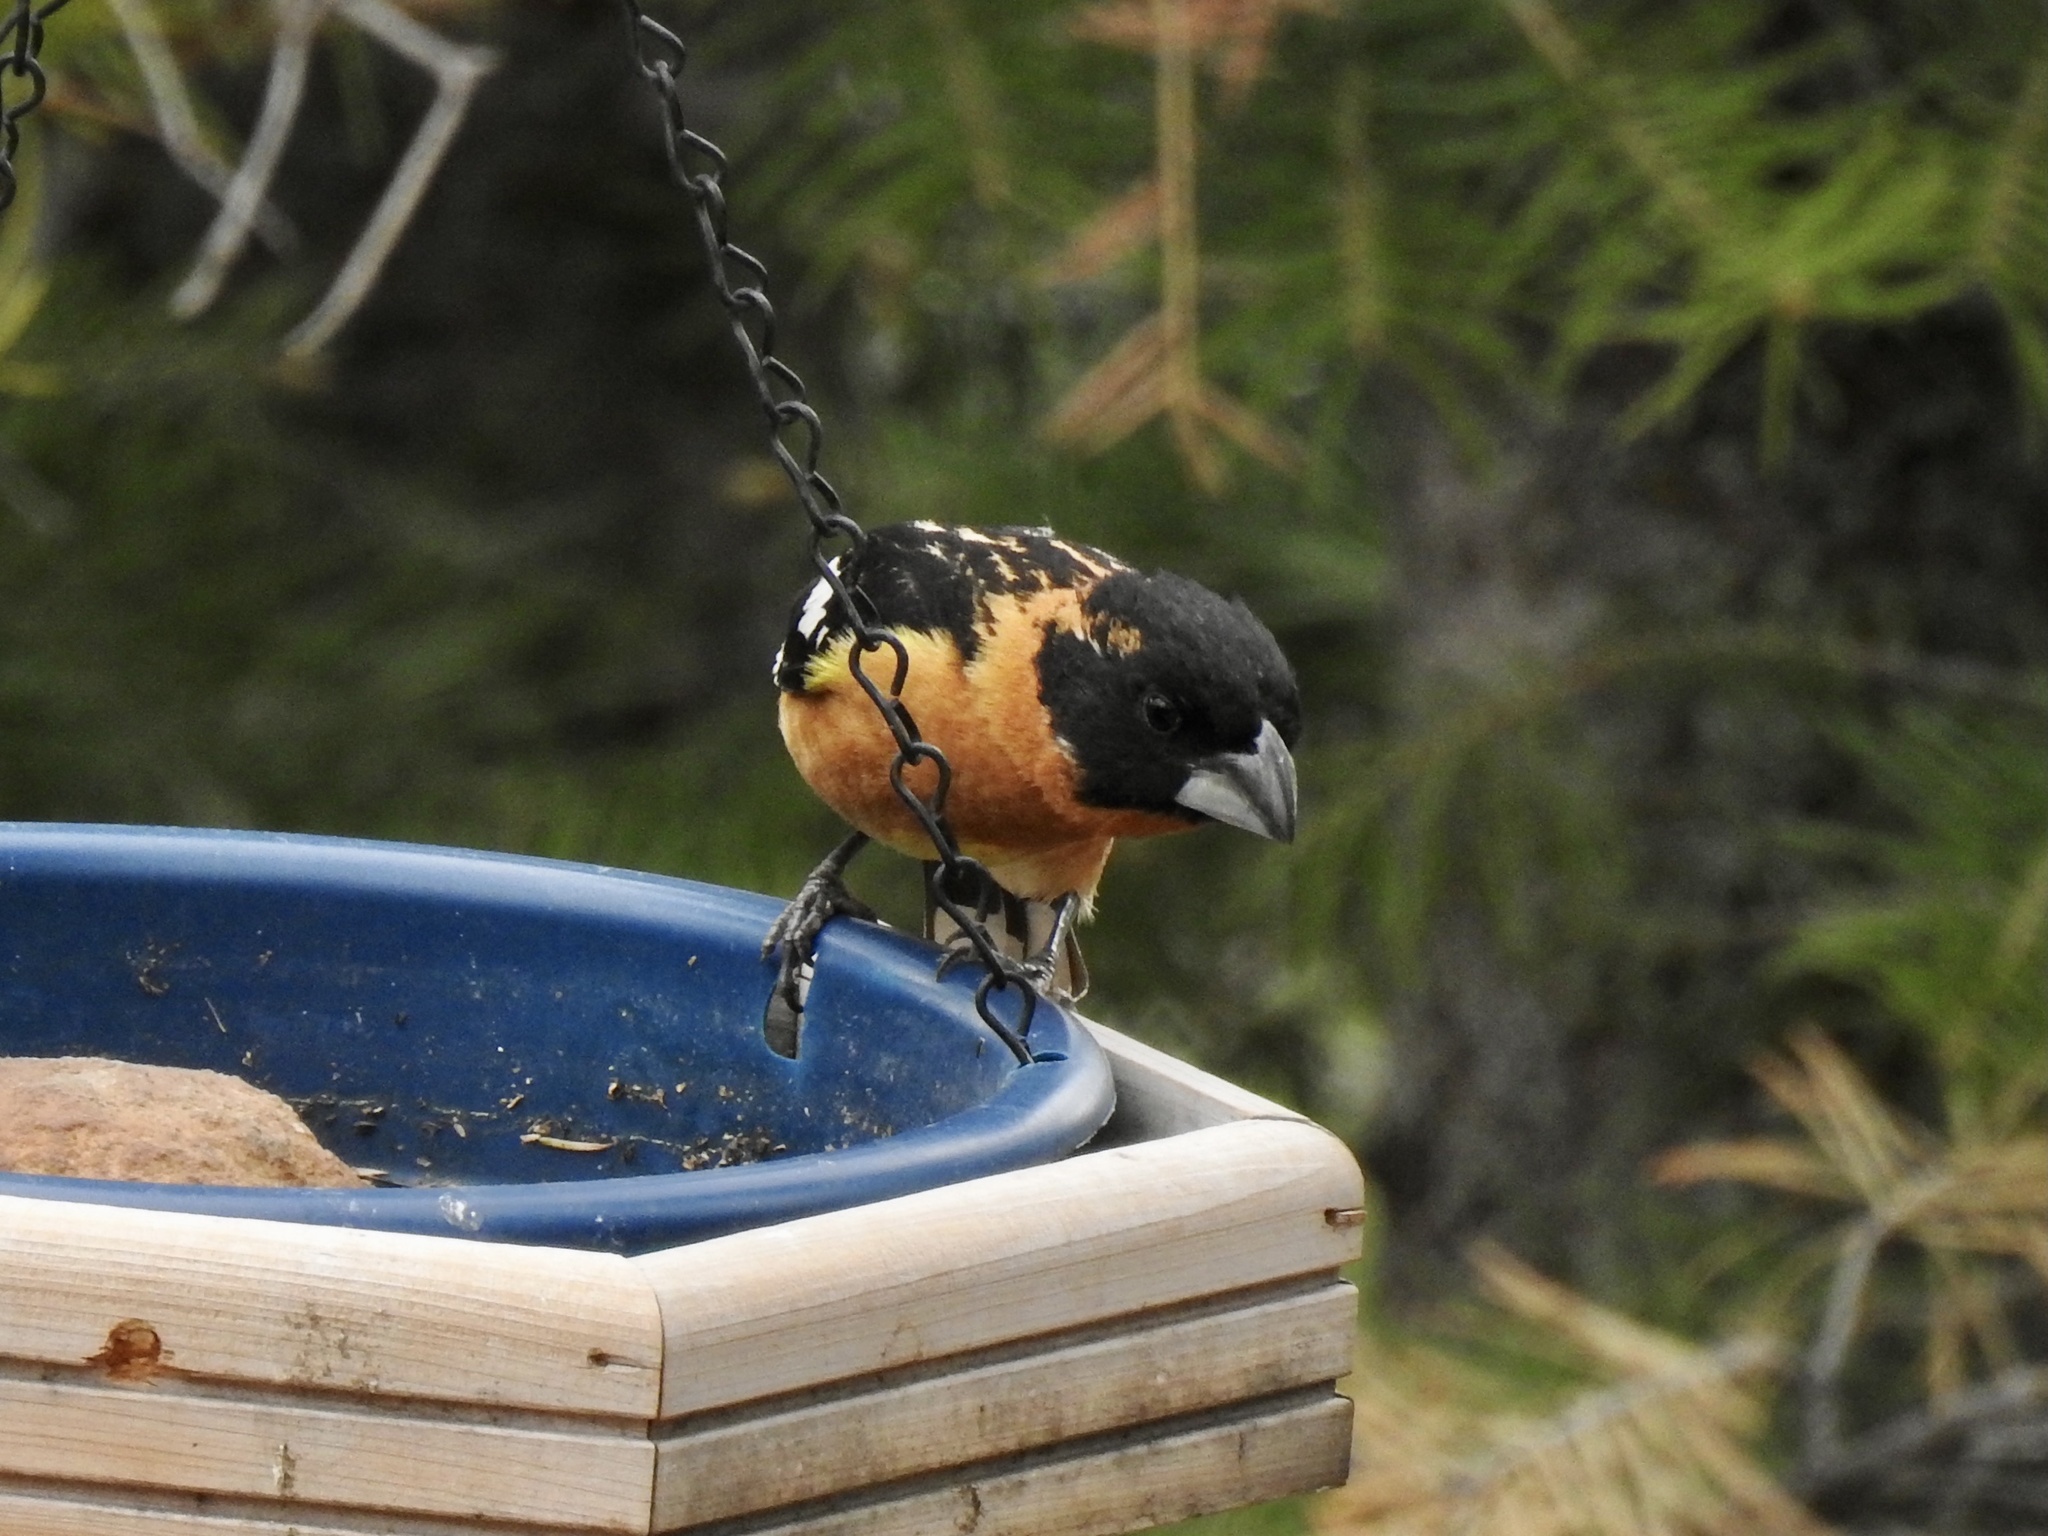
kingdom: Animalia
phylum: Chordata
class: Aves
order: Passeriformes
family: Cardinalidae
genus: Pheucticus
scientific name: Pheucticus melanocephalus
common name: Black-headed grosbeak
